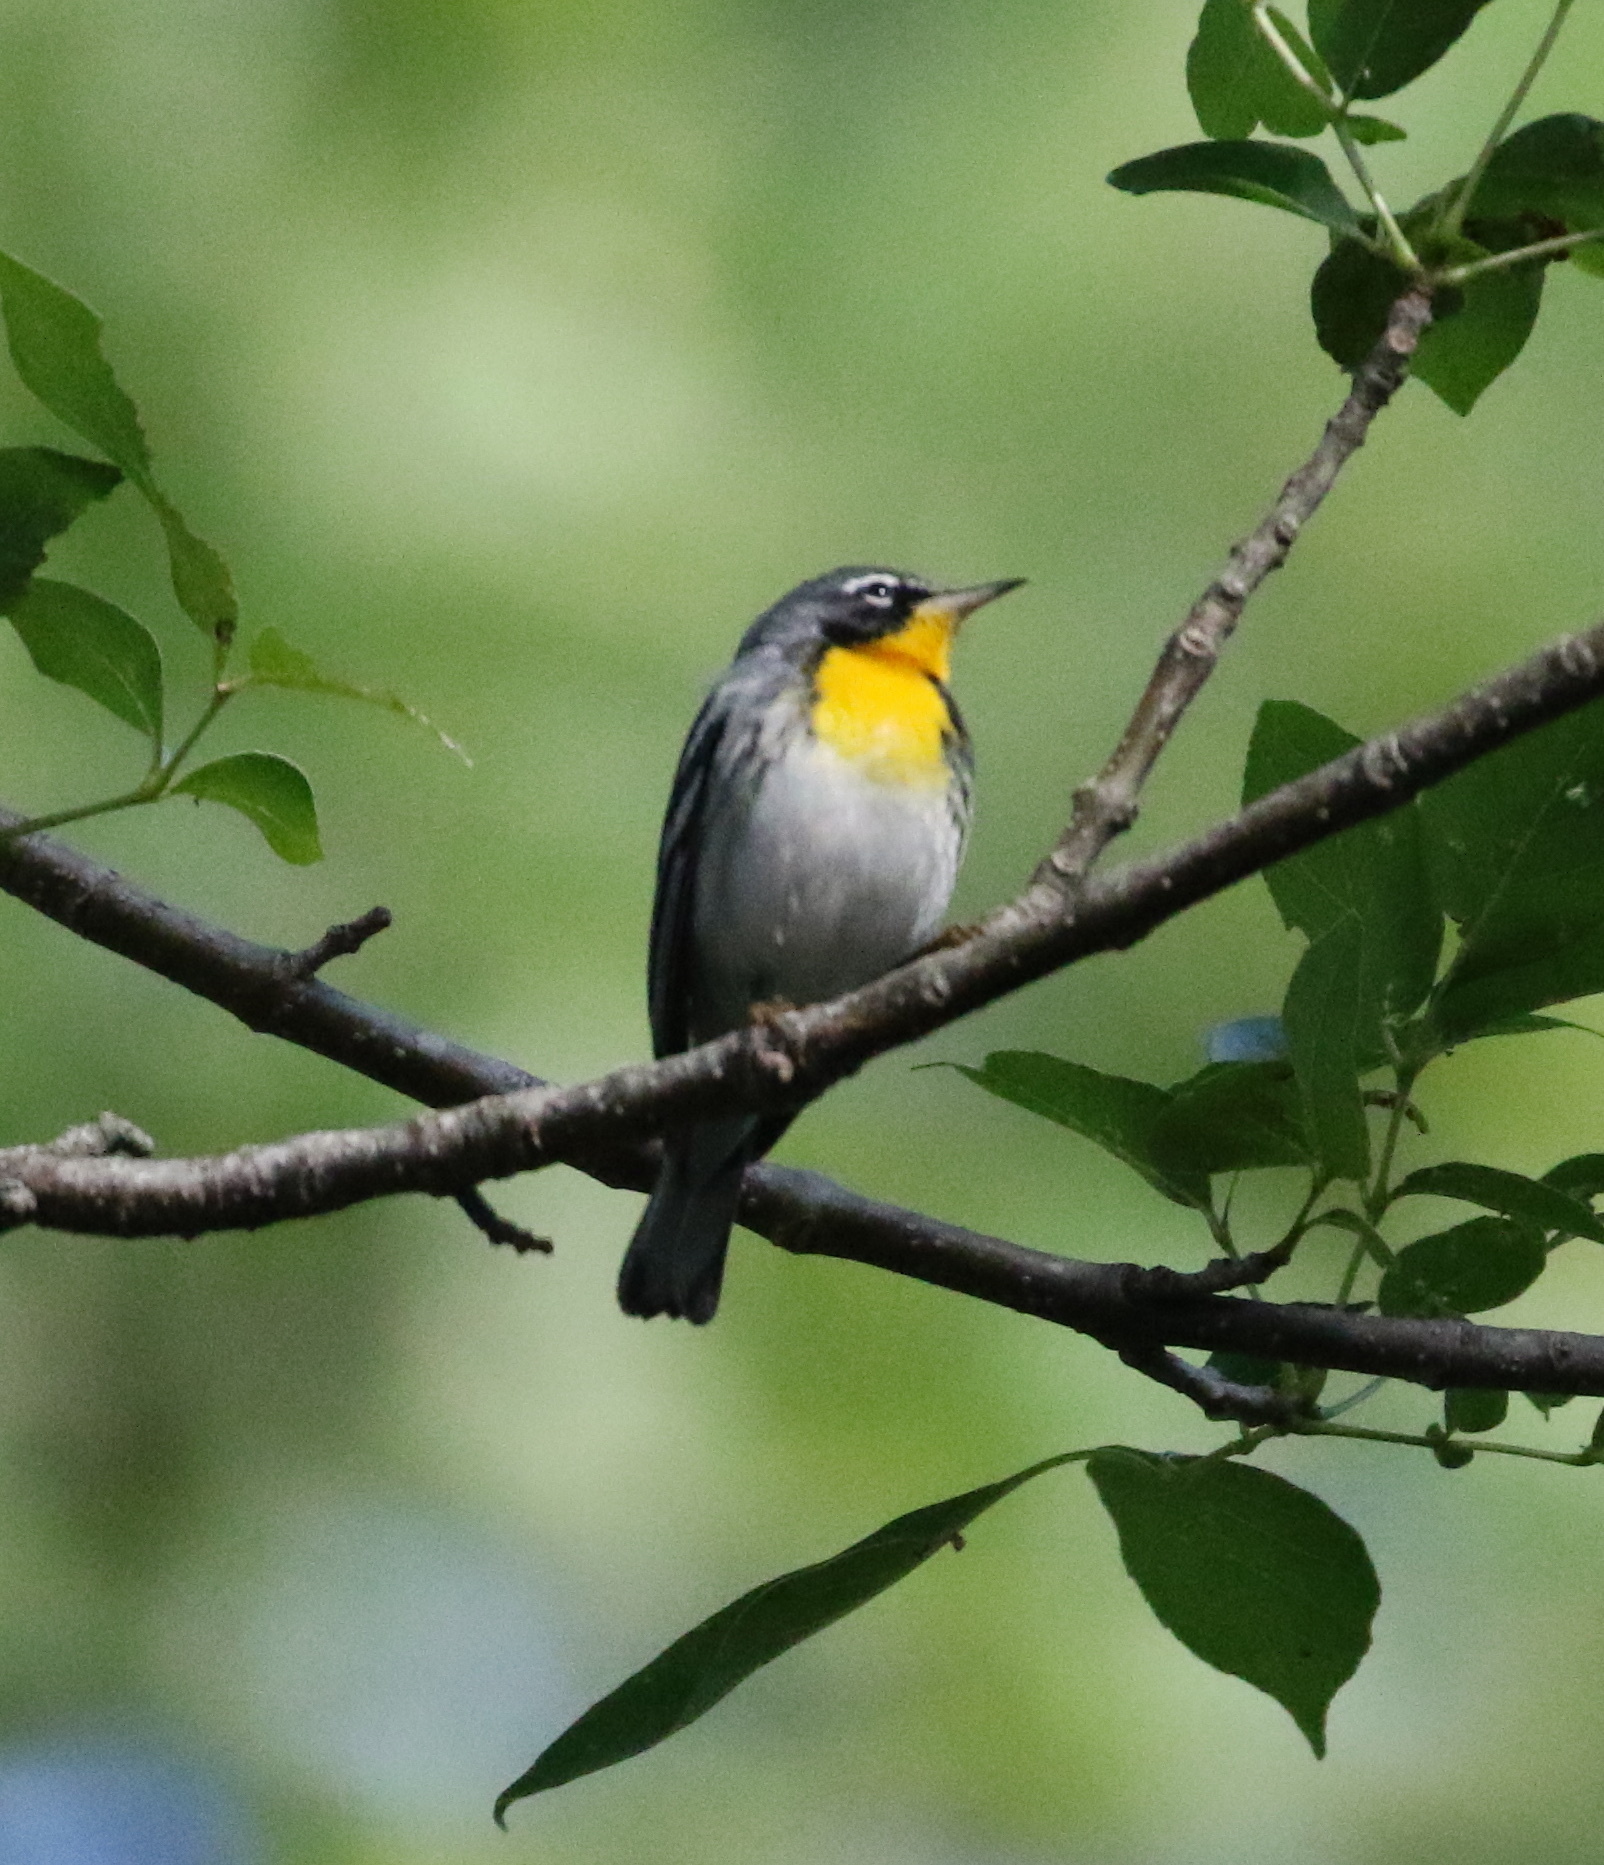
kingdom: Animalia
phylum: Chordata
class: Aves
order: Passeriformes
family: Parulidae
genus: Setophaga
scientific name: Setophaga
